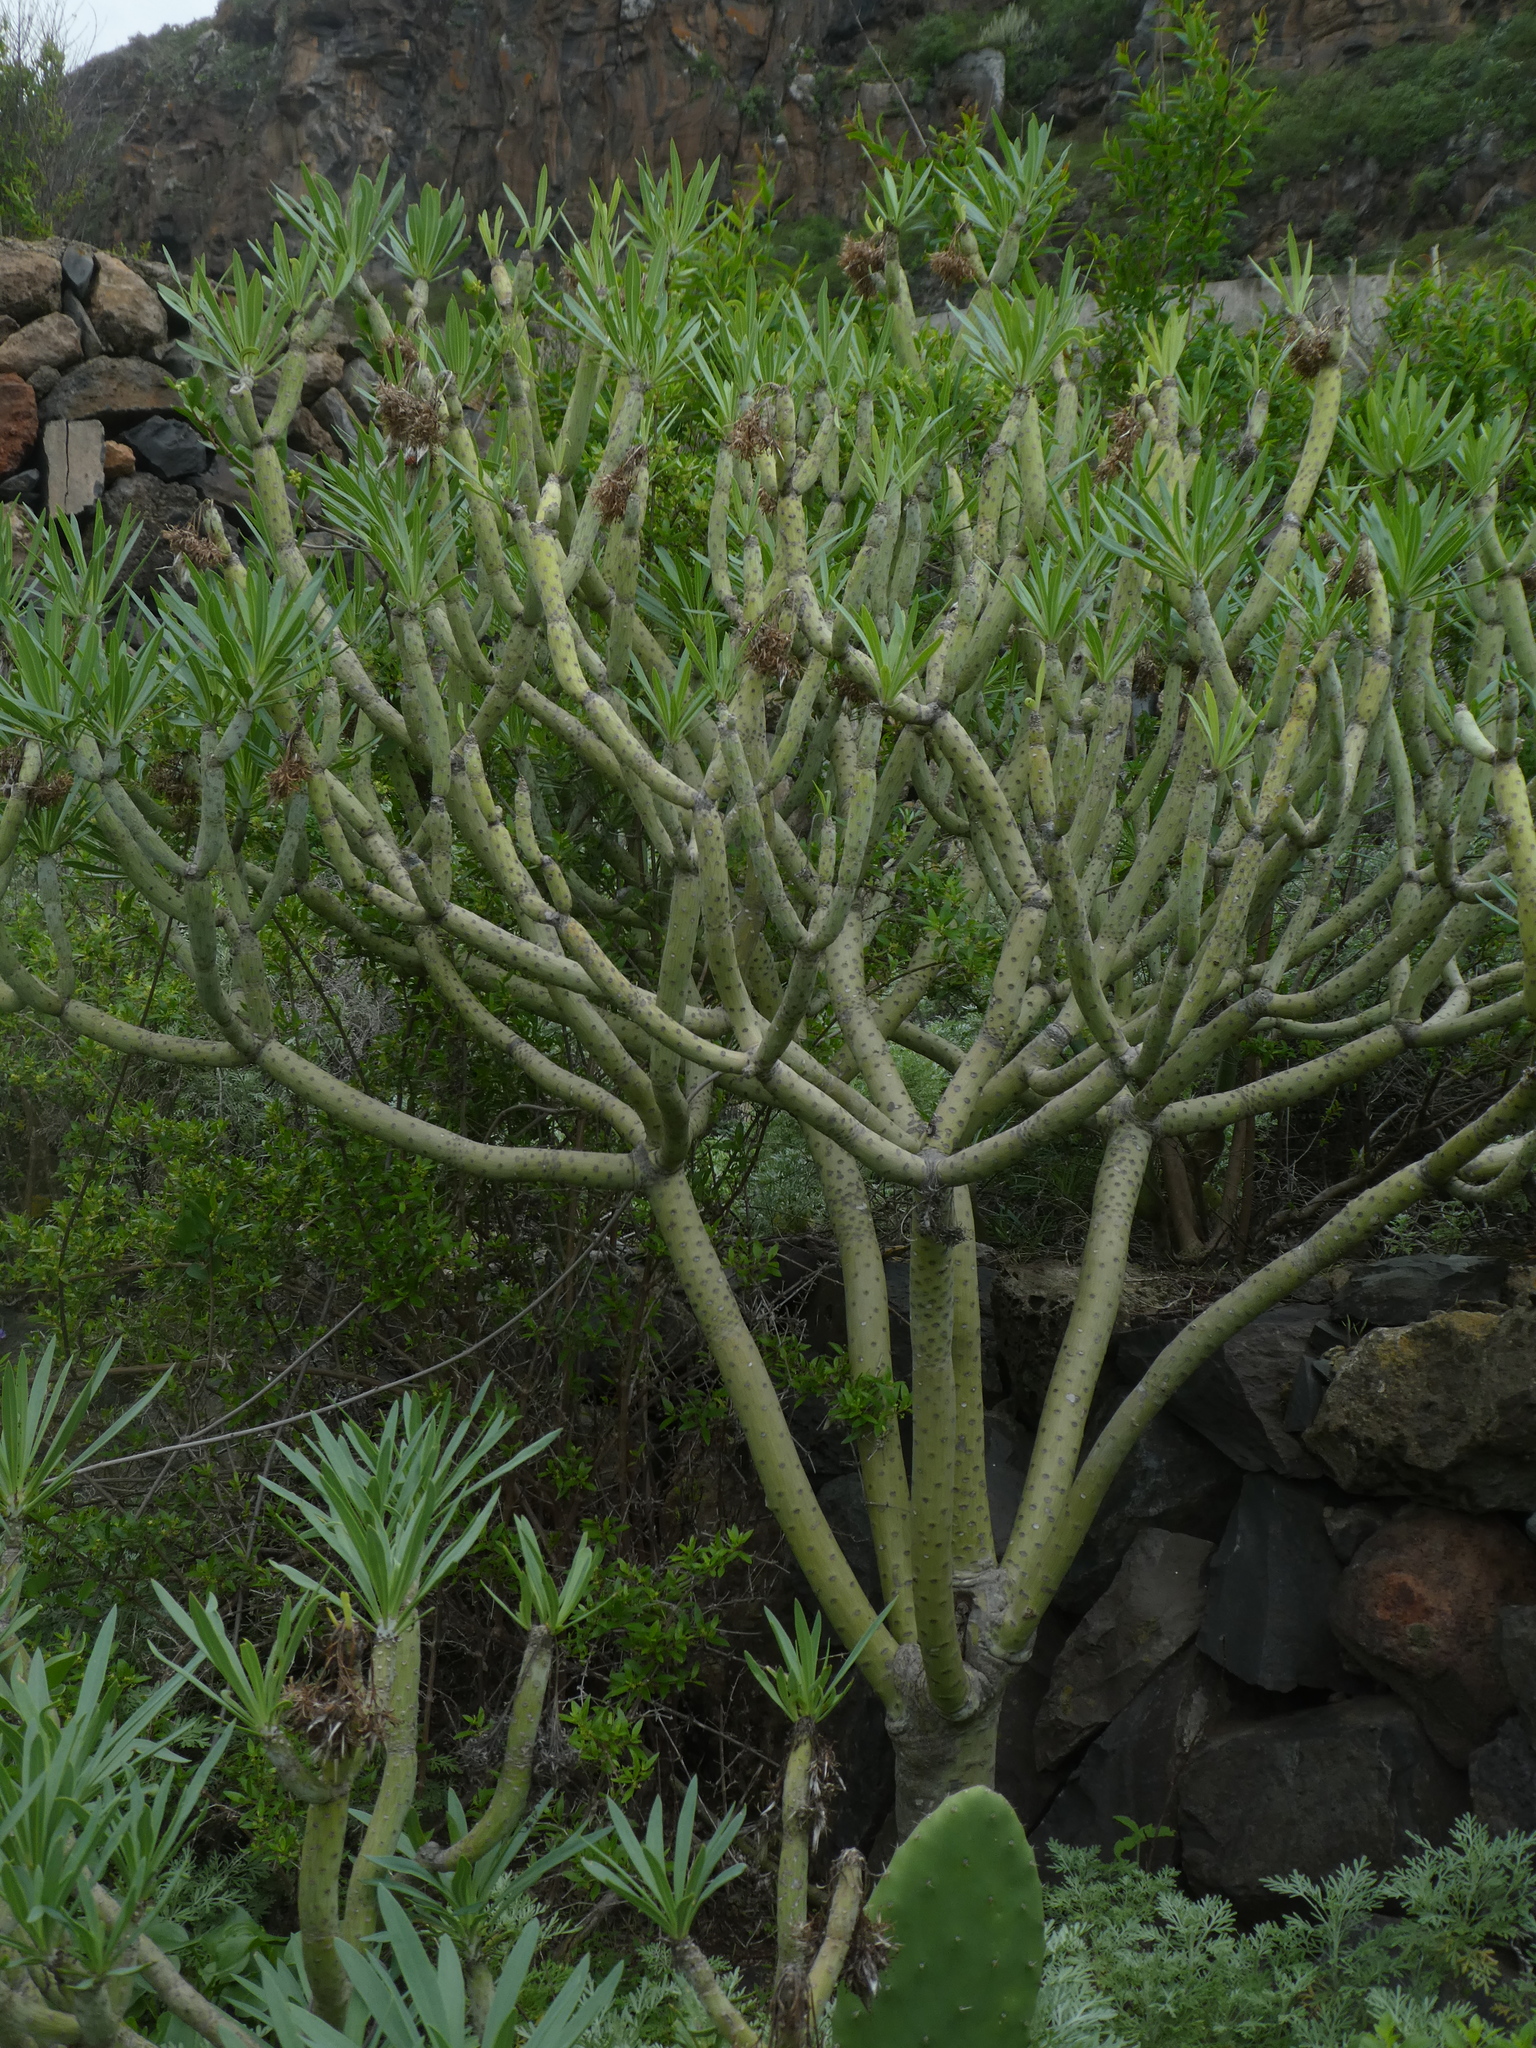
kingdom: Plantae
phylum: Tracheophyta
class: Magnoliopsida
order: Asterales
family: Asteraceae
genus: Kleinia
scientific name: Kleinia neriifolia
